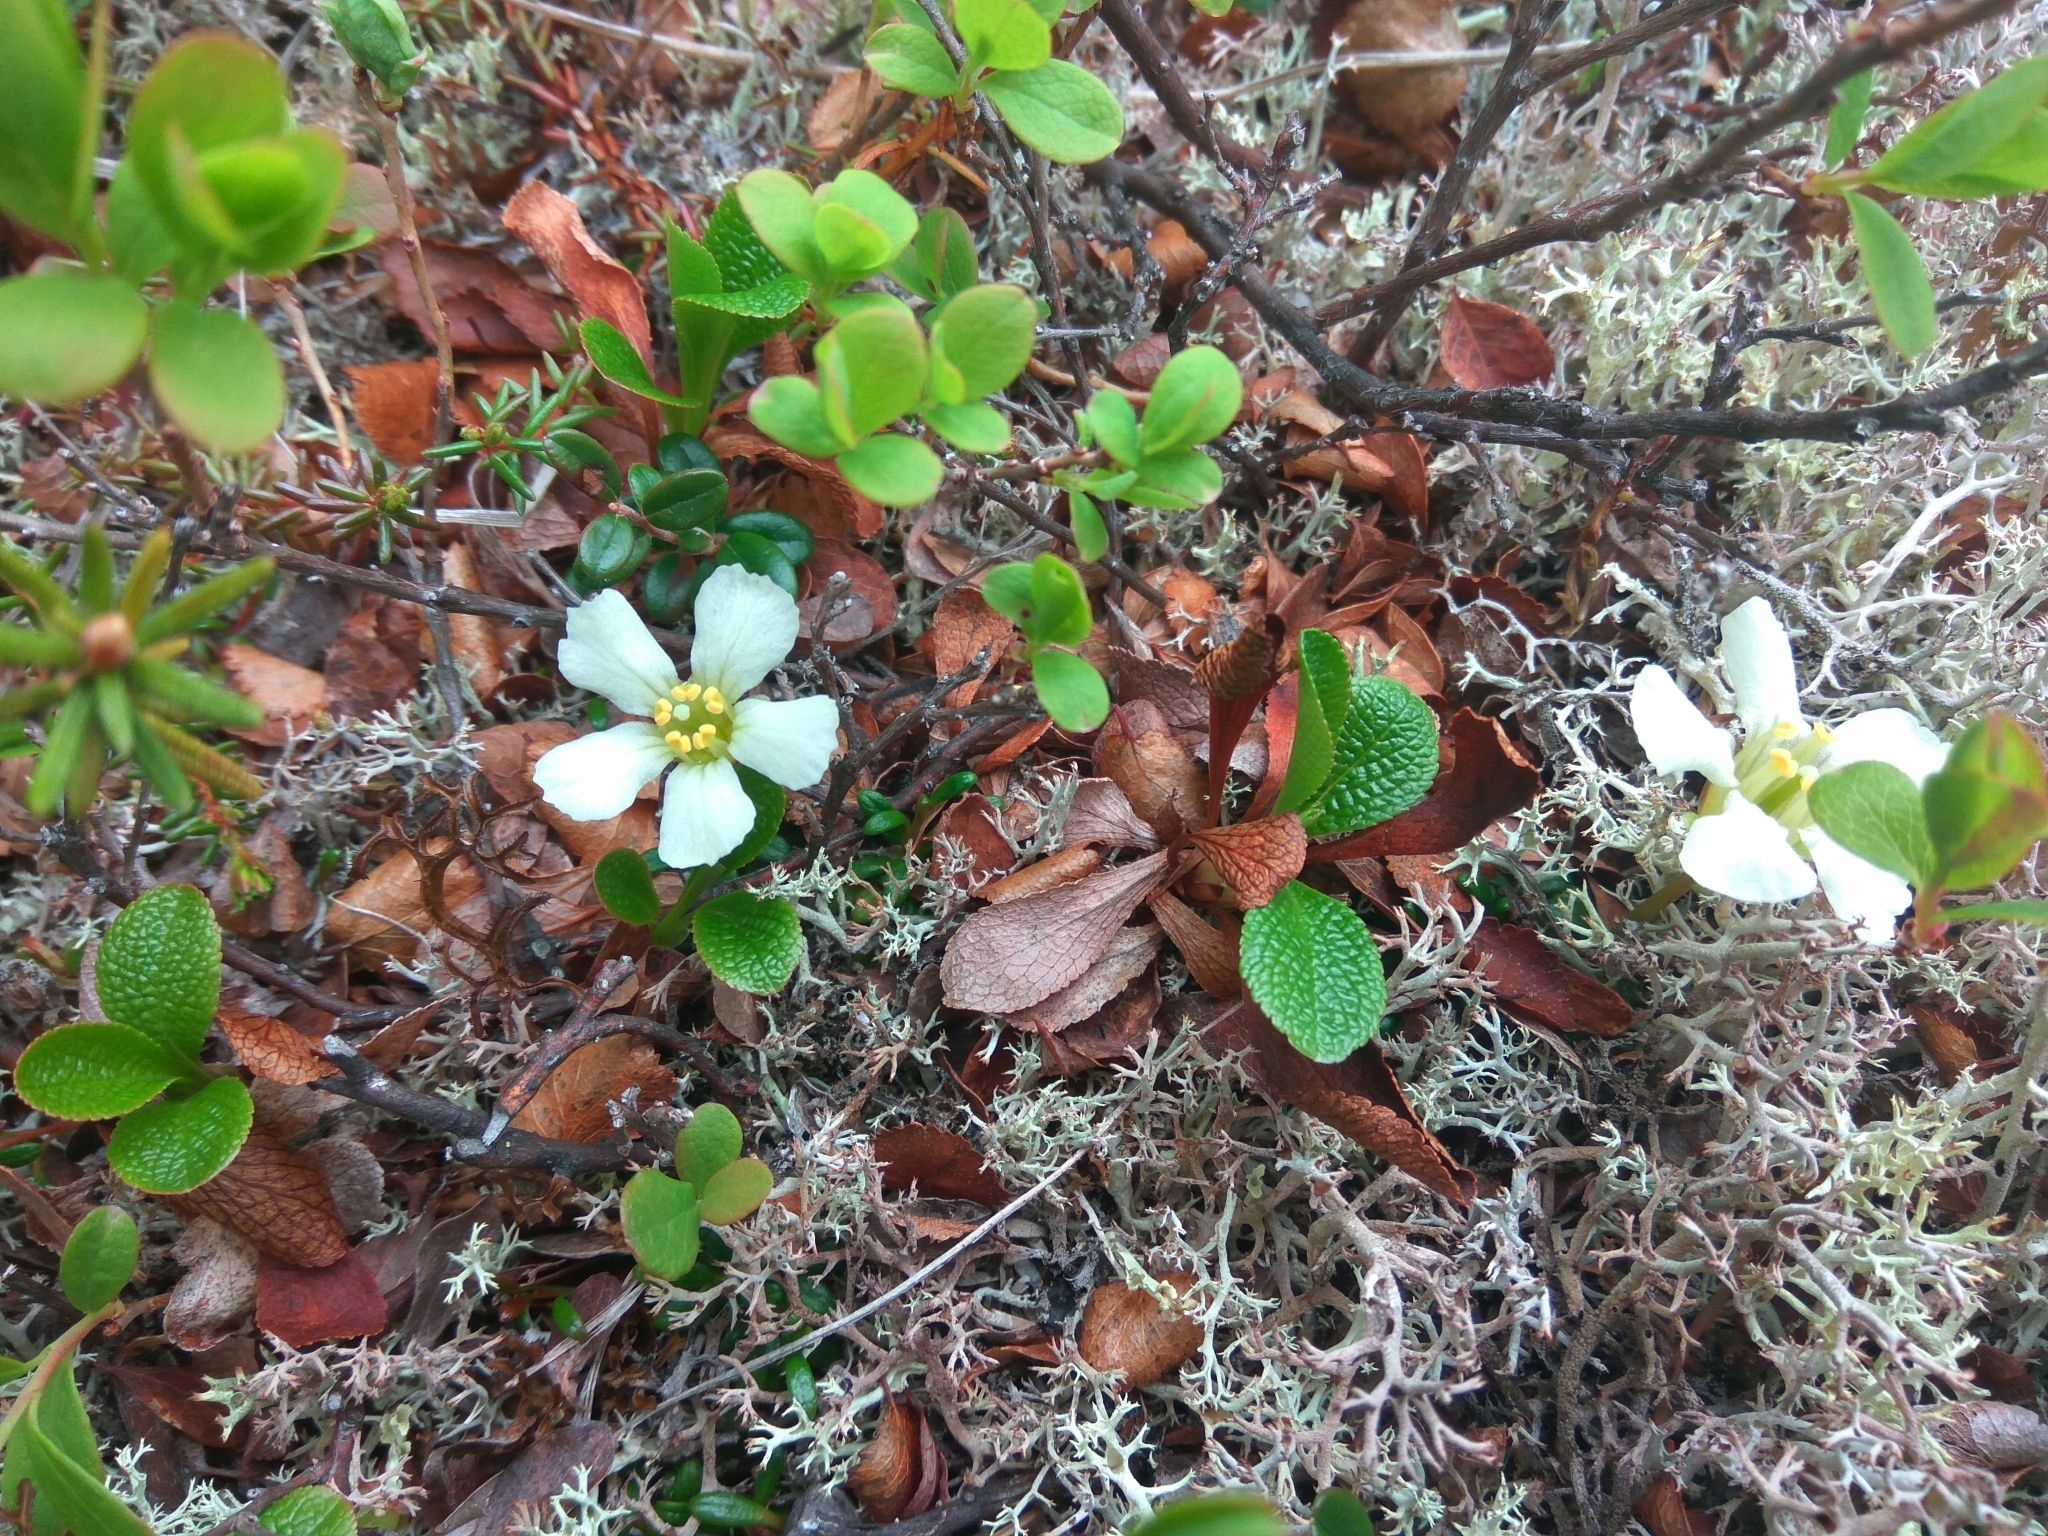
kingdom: Plantae
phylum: Tracheophyta
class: Magnoliopsida
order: Ericales
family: Diapensiaceae
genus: Diapensia
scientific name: Diapensia obovata
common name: Alaska diapensia
